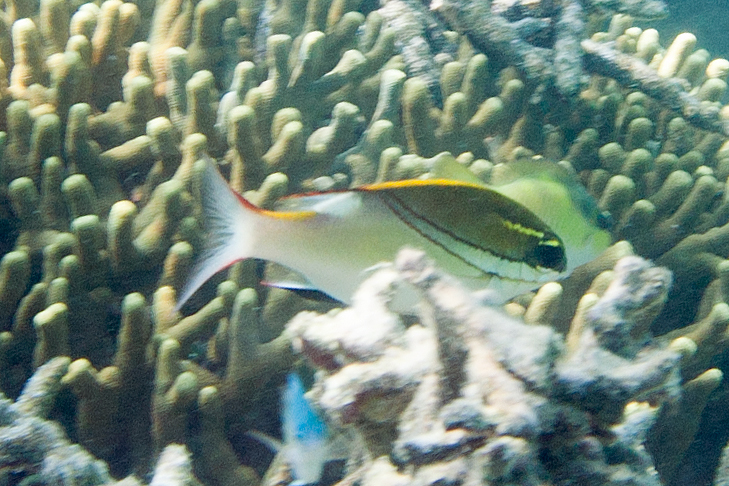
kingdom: Animalia
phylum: Chordata
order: Perciformes
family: Nemipteridae
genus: Scolopsis
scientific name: Scolopsis bilineata
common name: Two-lined monocle bream
